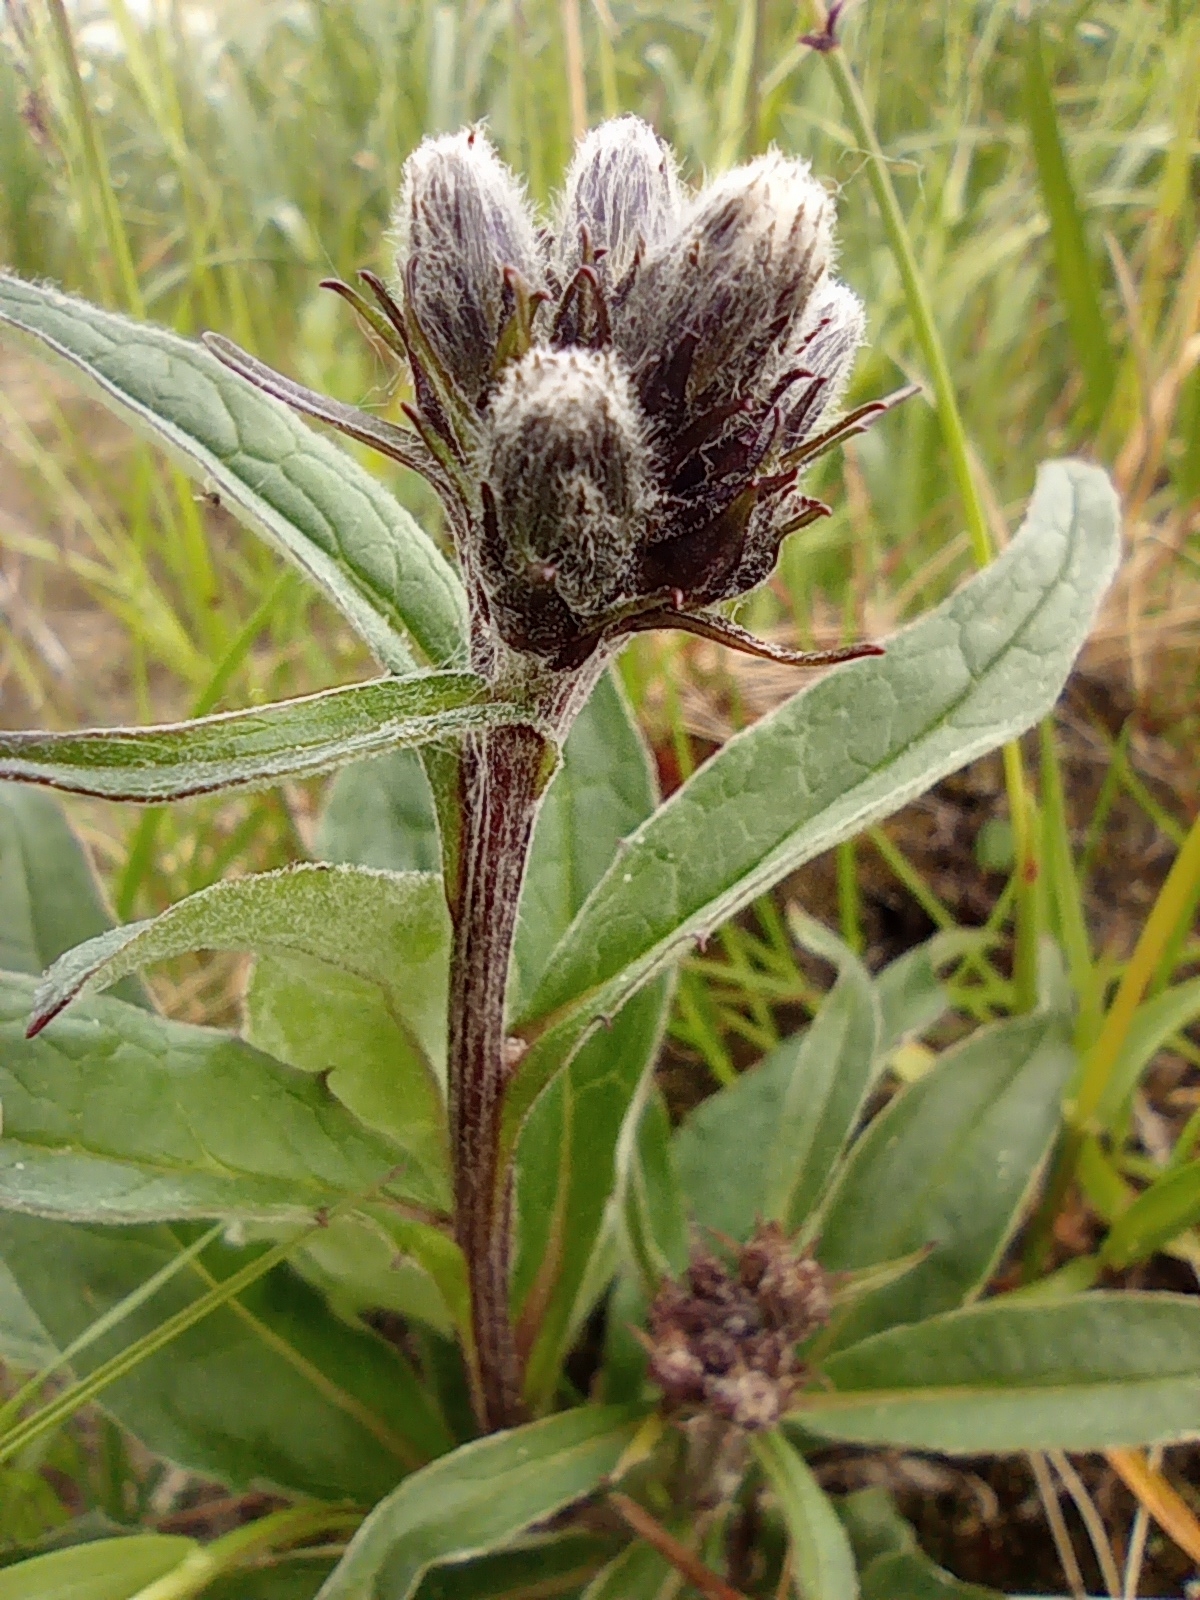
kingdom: Plantae
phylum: Tracheophyta
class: Magnoliopsida
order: Asterales
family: Asteraceae
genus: Saussurea
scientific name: Saussurea tilesii
